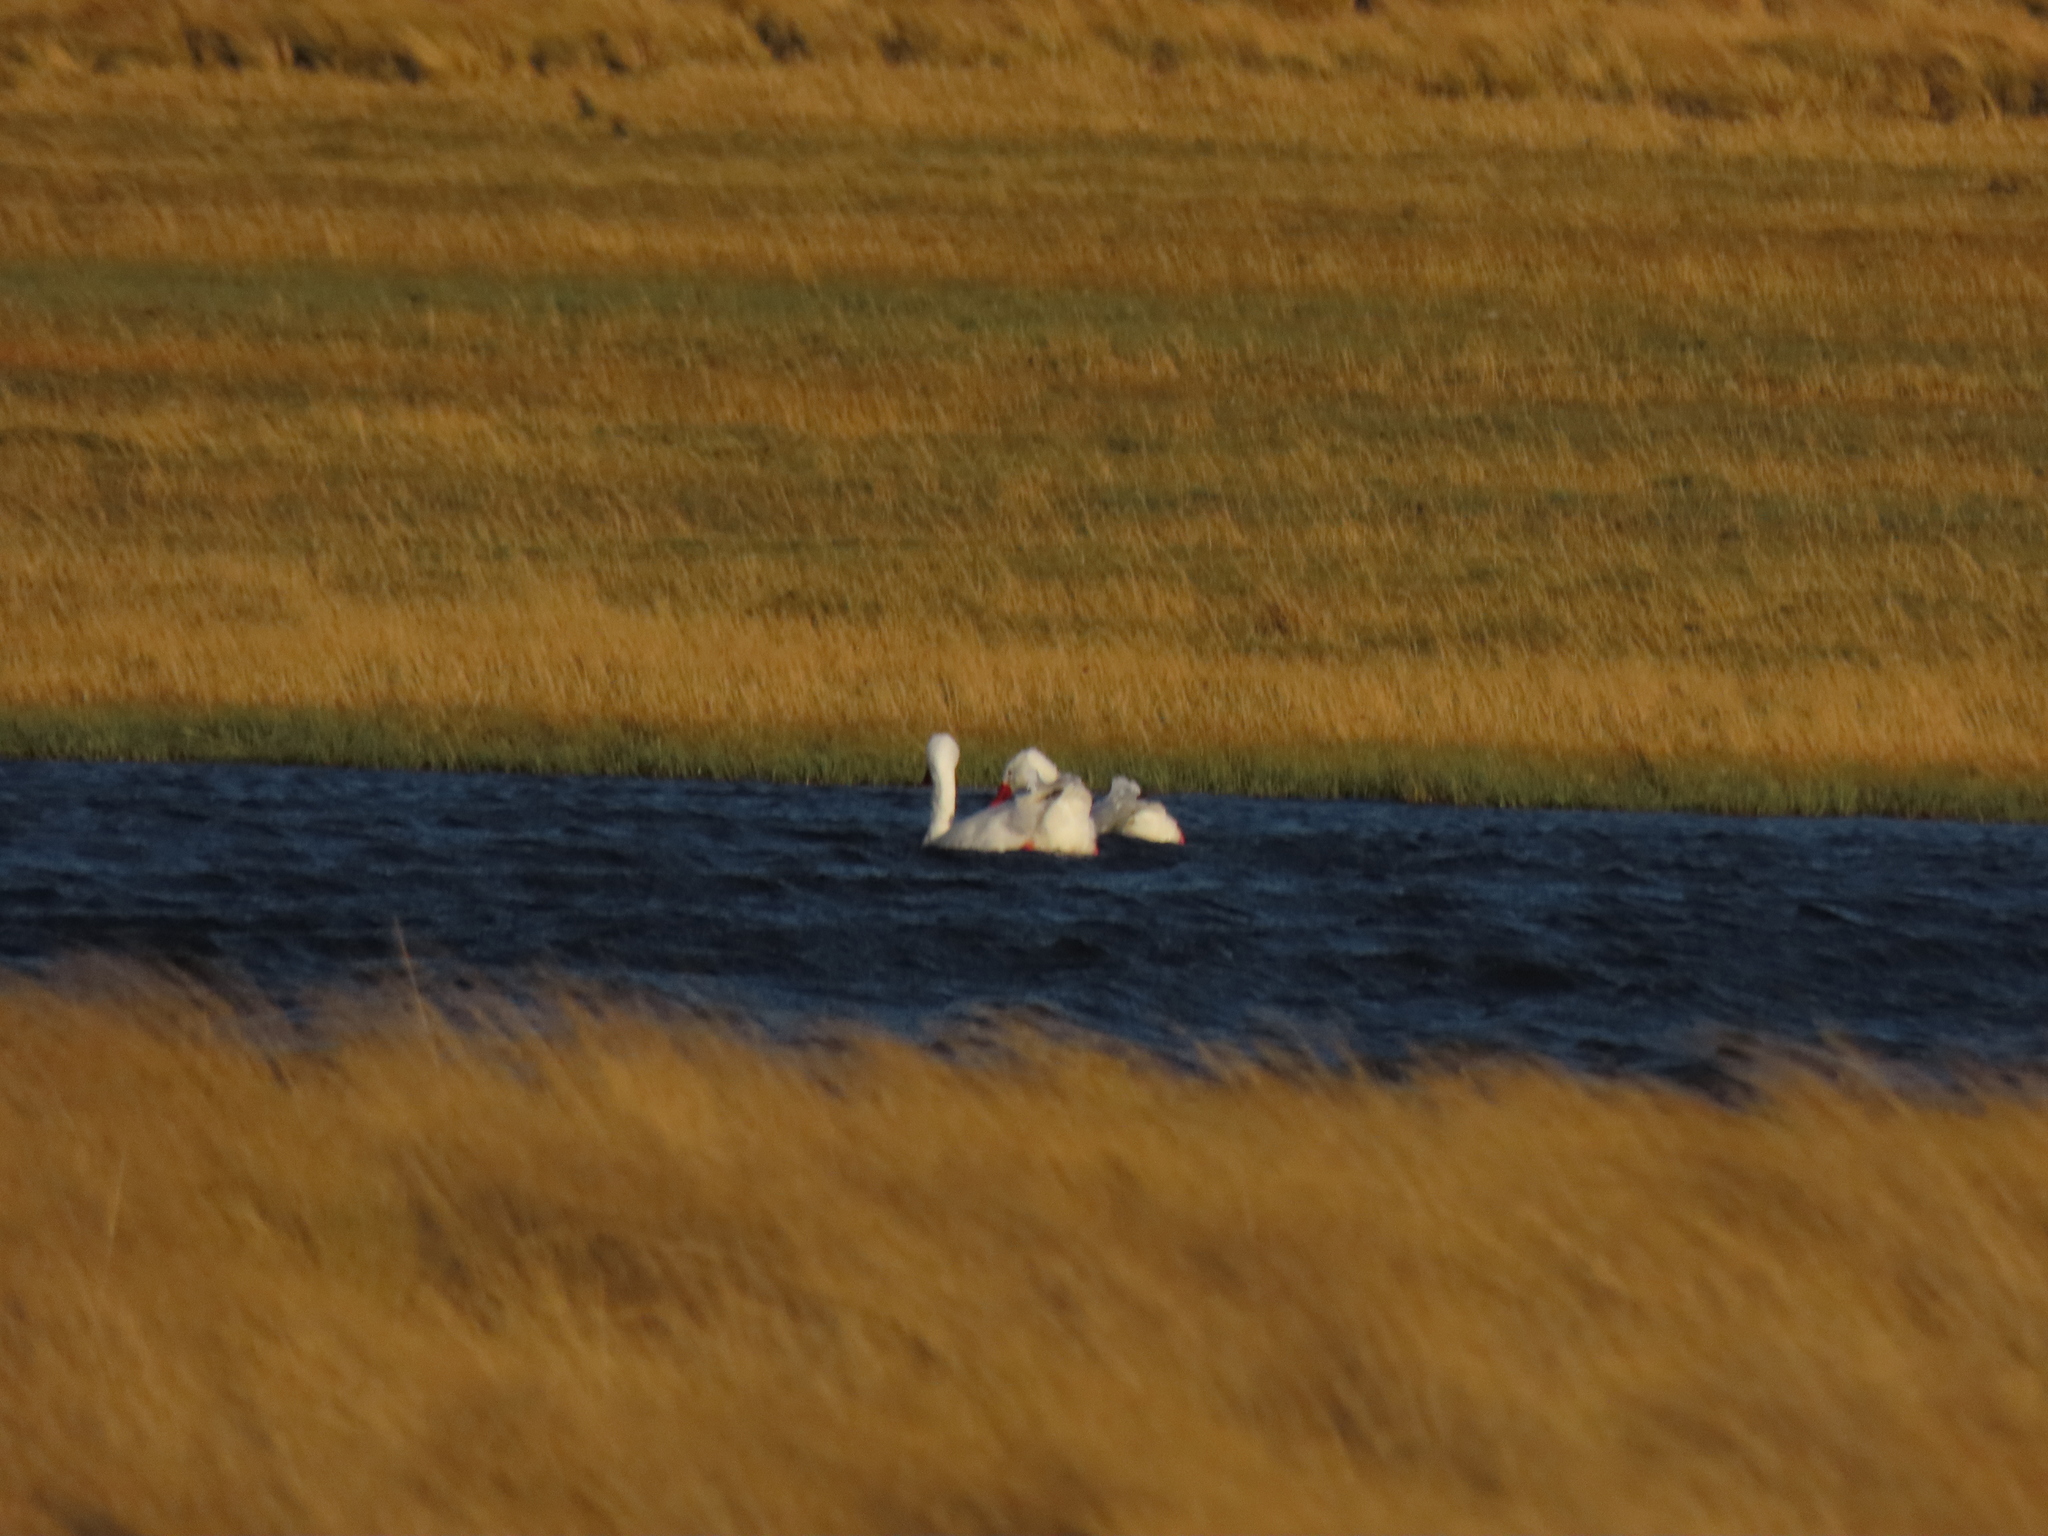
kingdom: Animalia
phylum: Chordata
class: Aves
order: Anseriformes
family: Anatidae
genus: Coscoroba
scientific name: Coscoroba coscoroba
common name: Coscoroba swan
